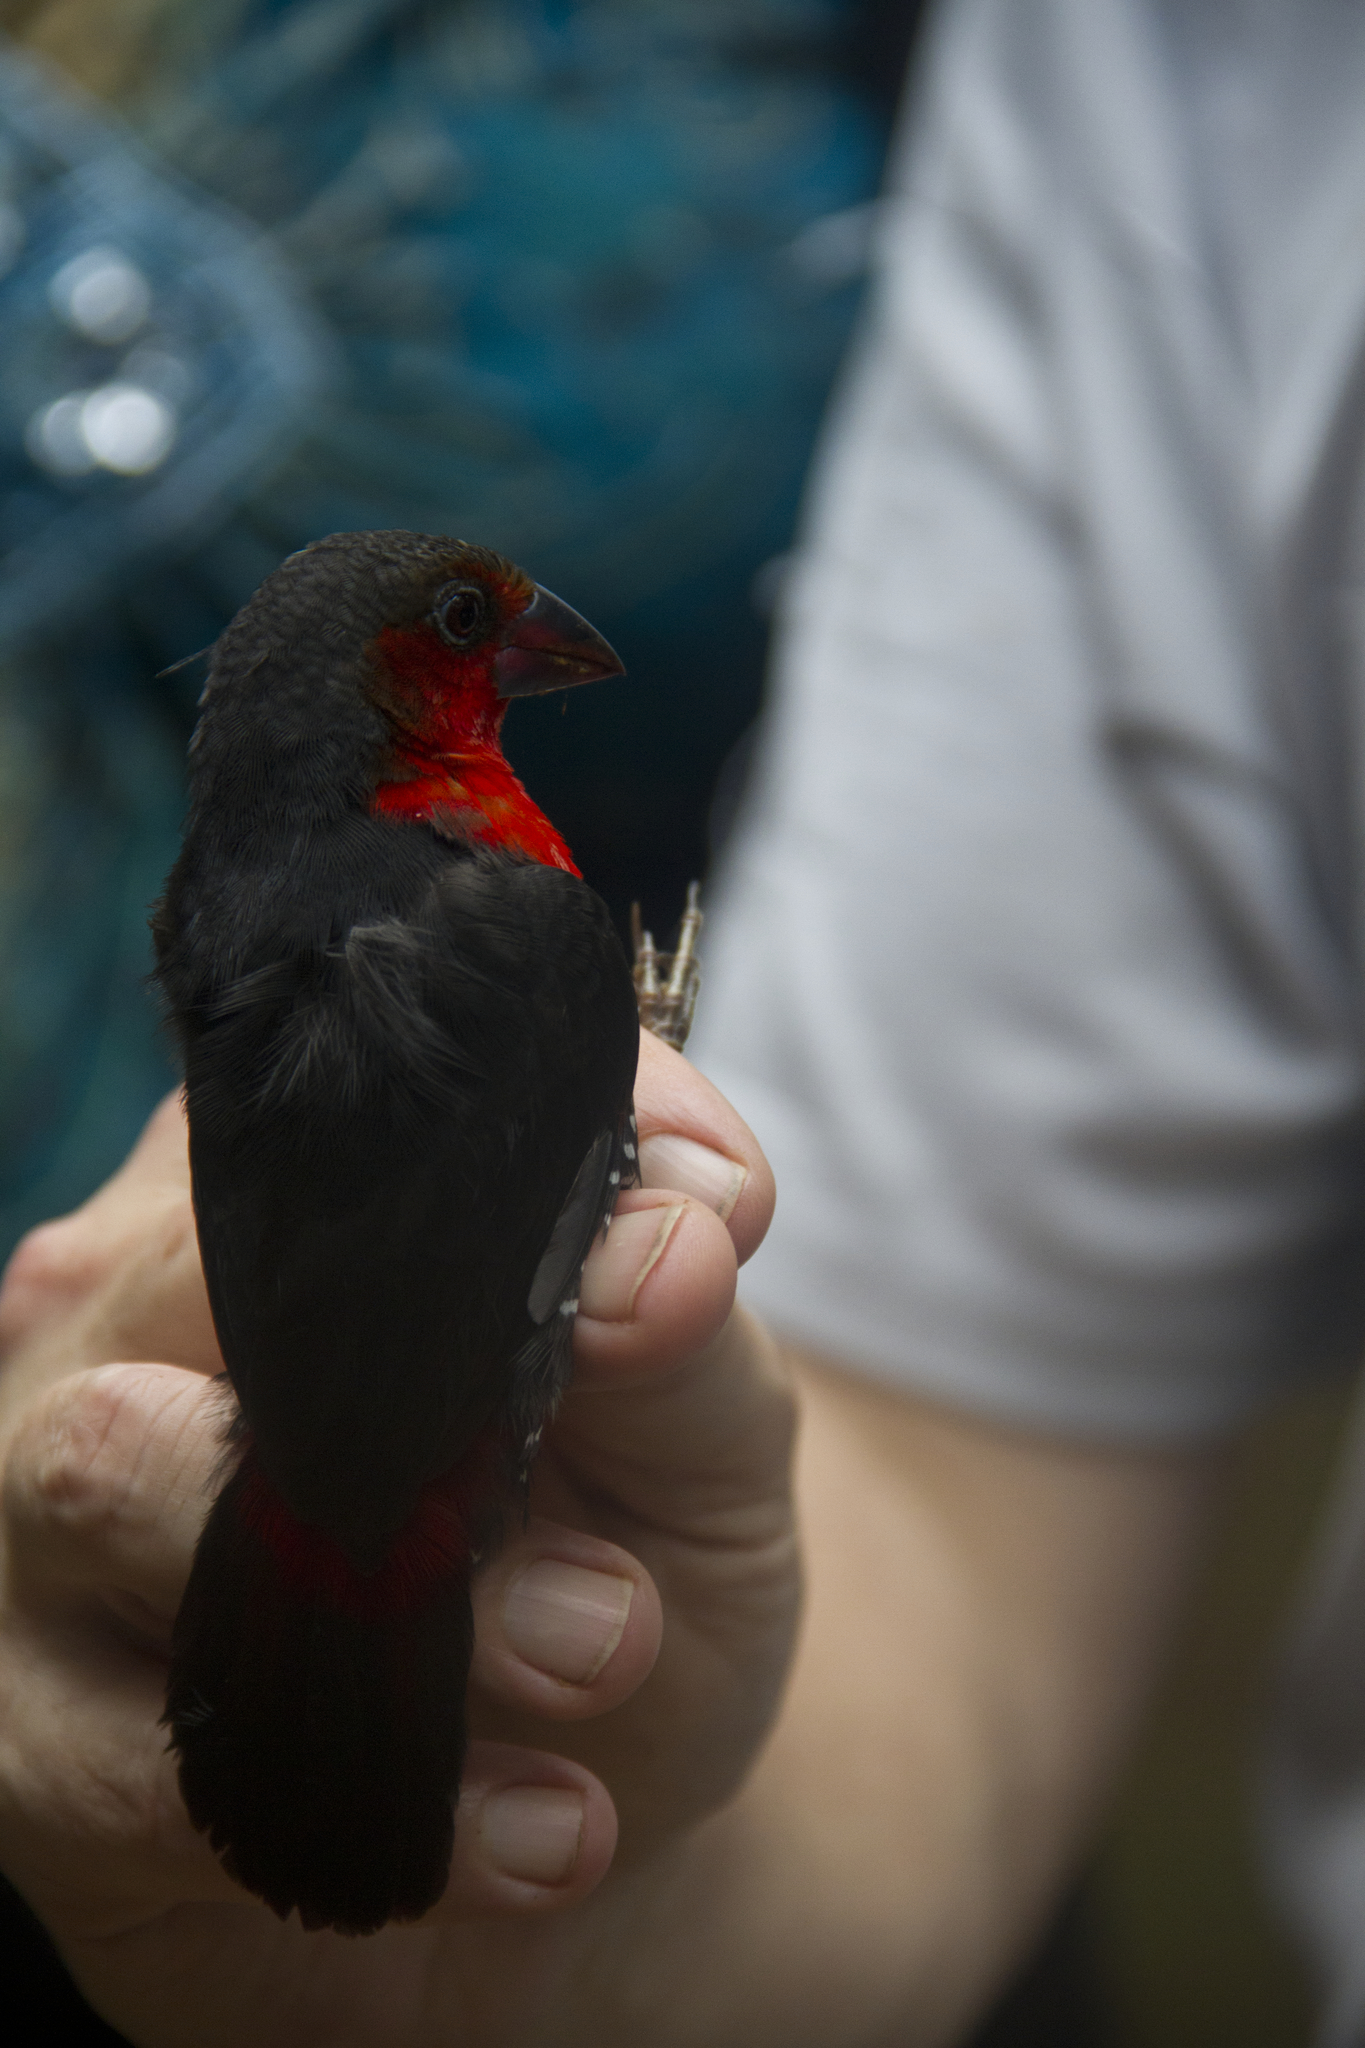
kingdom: Animalia
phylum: Chordata
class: Aves
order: Passeriformes
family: Estrildidae
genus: Spermophaga
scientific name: Spermophaga haematina
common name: Western bluebill
